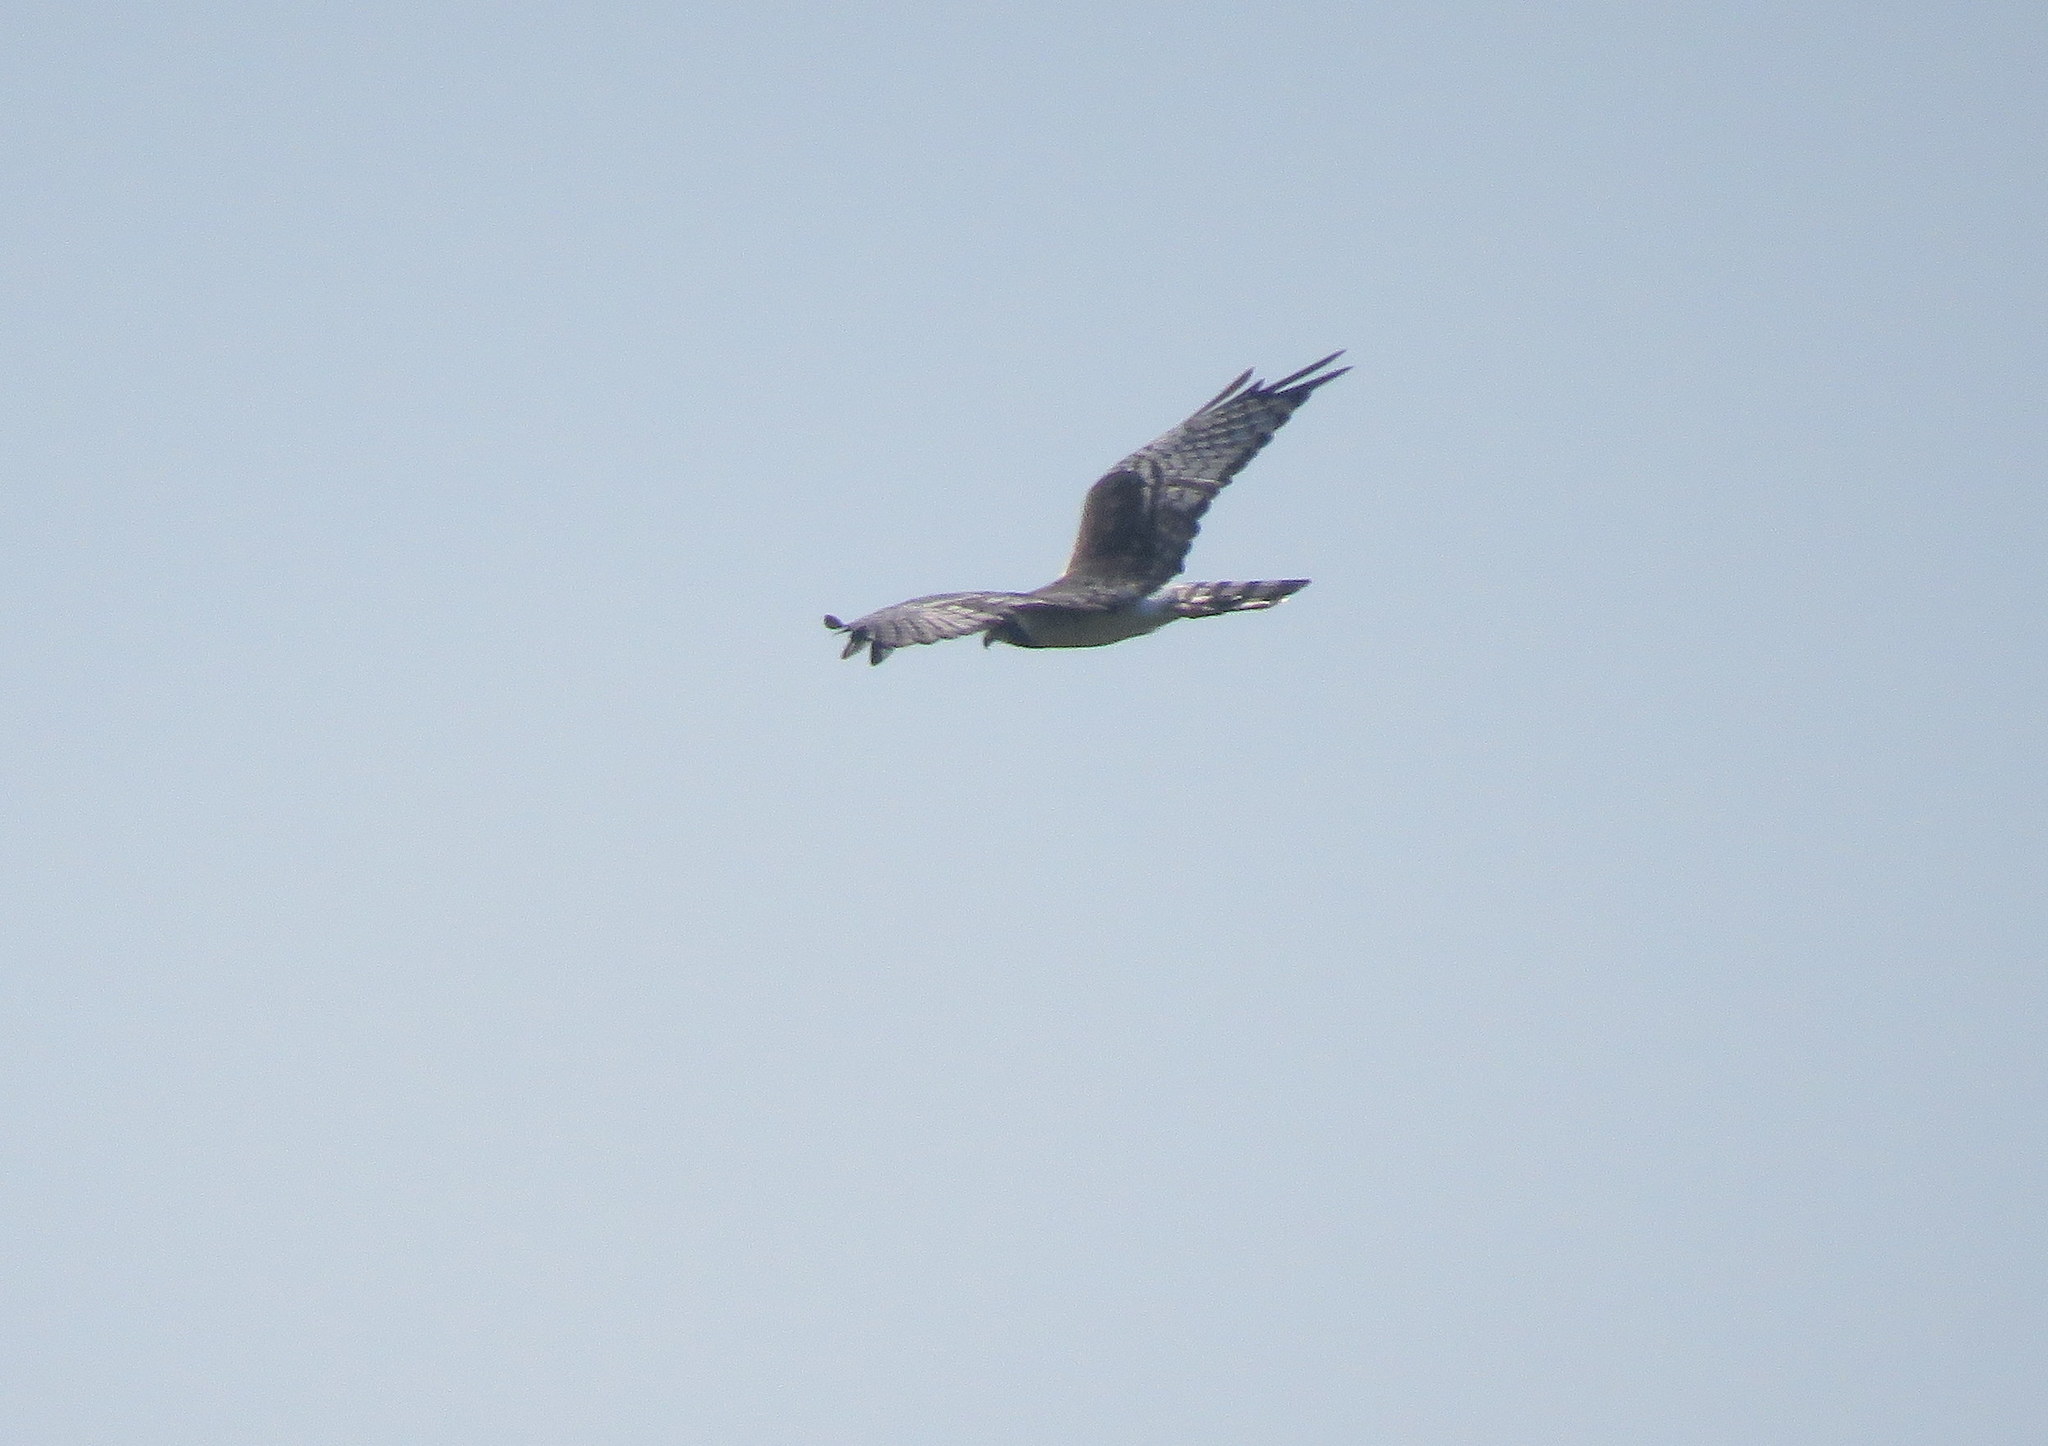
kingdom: Animalia
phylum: Chordata
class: Aves
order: Accipitriformes
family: Accipitridae
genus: Circus
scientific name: Circus buffoni
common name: Long-winged harrier
